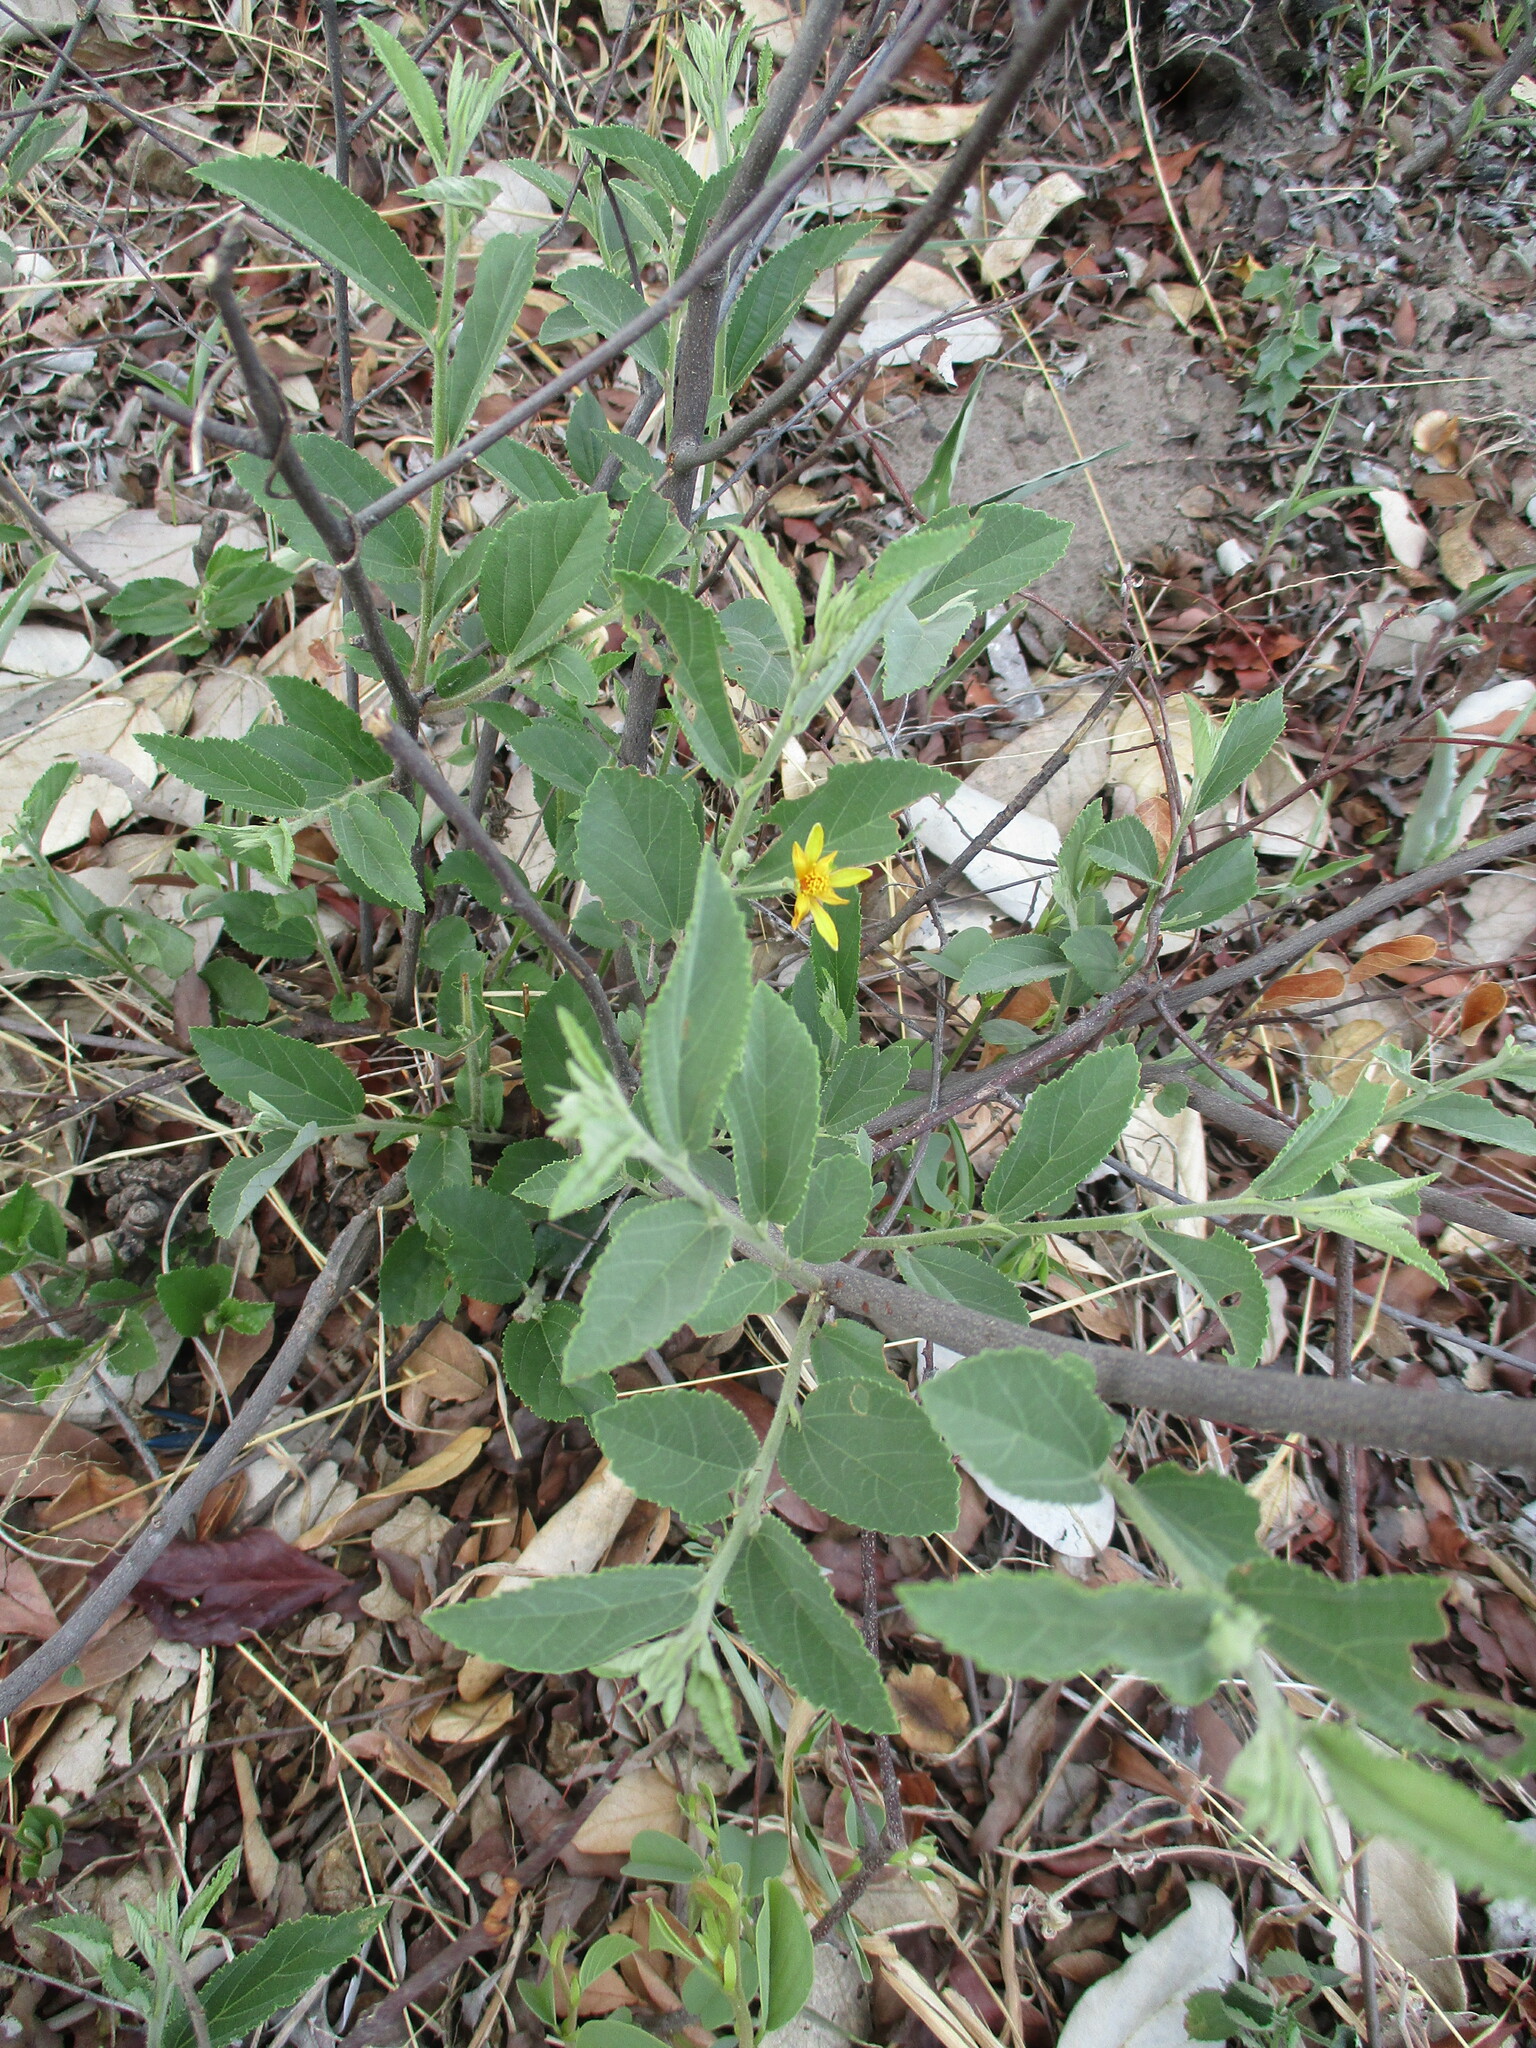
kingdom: Plantae
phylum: Tracheophyta
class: Magnoliopsida
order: Malvales
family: Malvaceae
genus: Grewia
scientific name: Grewia flava
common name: Brandy bush
